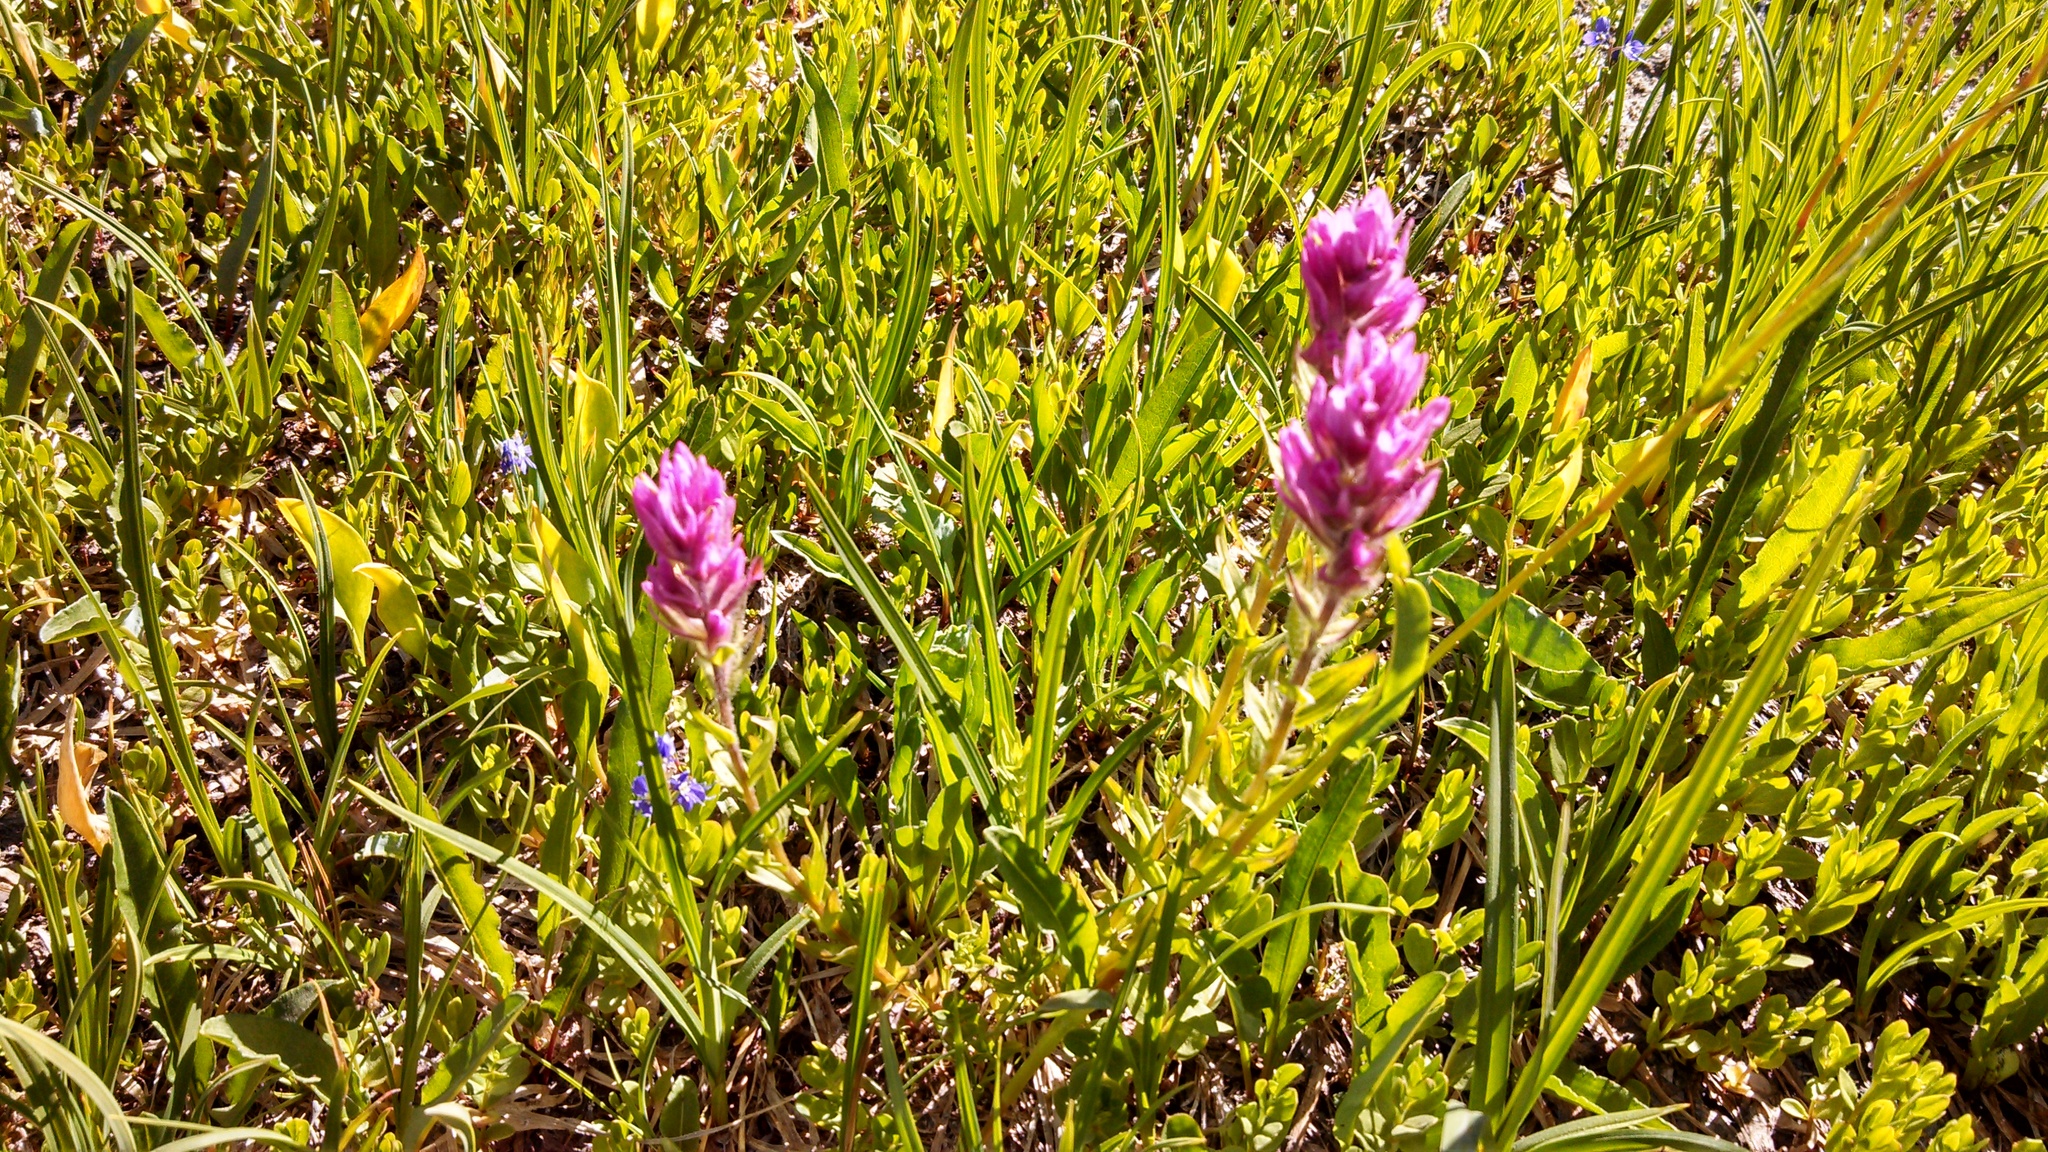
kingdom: Plantae
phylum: Tracheophyta
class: Magnoliopsida
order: Lamiales
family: Orobanchaceae
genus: Castilleja
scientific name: Castilleja parviflora
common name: Mountain paintbrush
